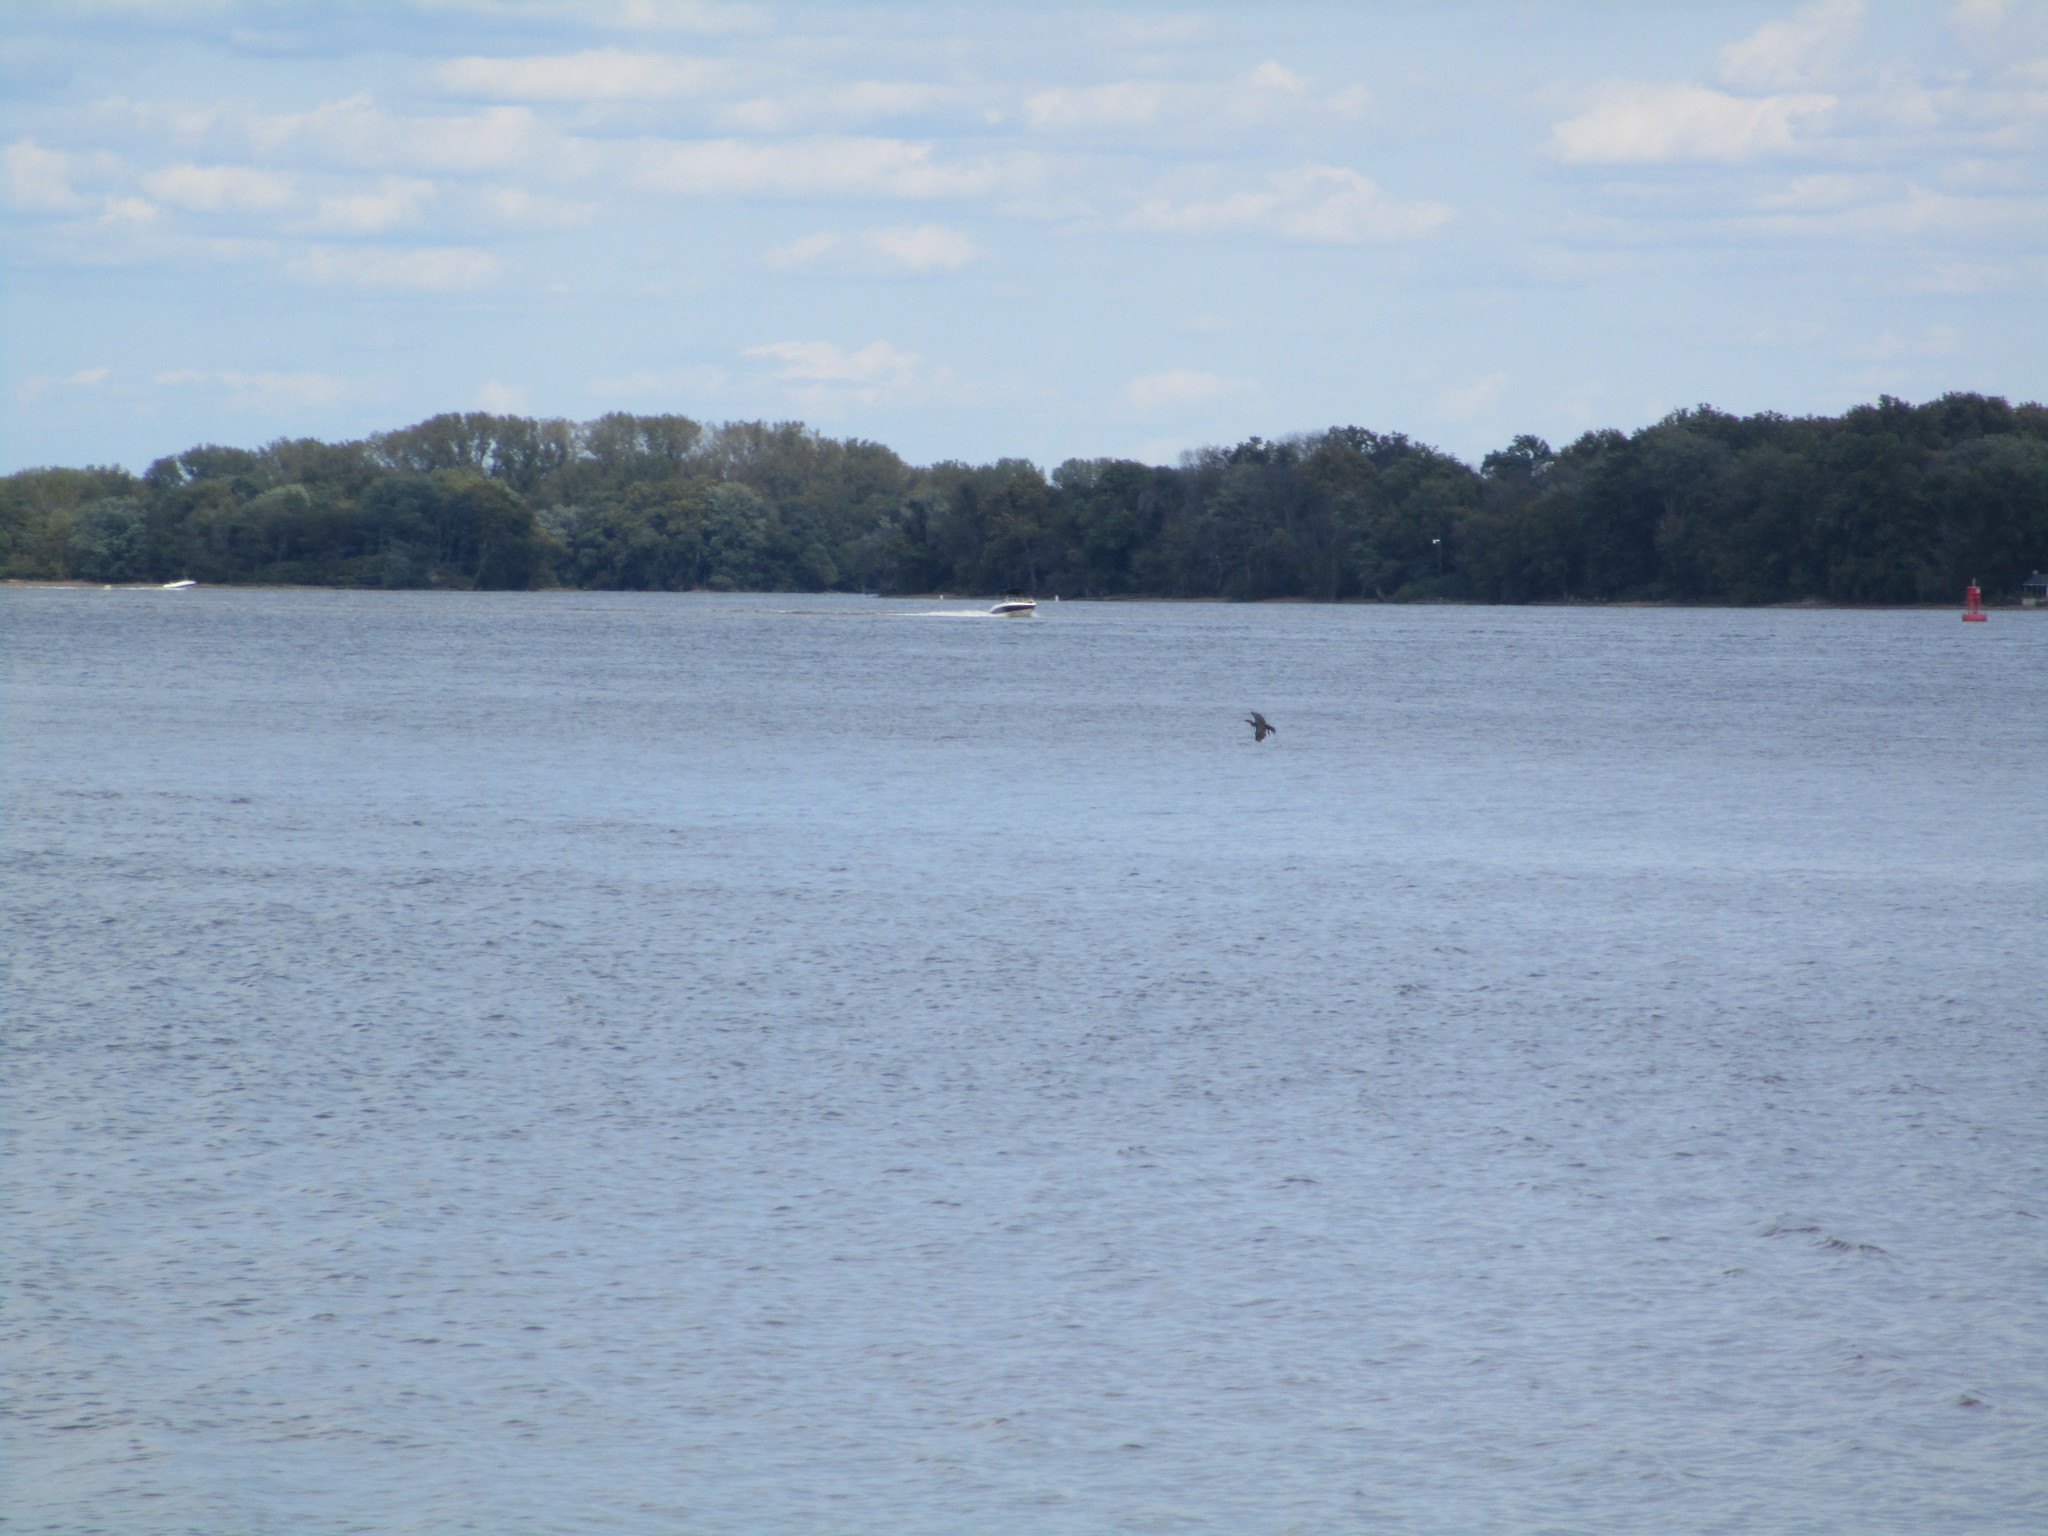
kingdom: Animalia
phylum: Chordata
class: Aves
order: Suliformes
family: Phalacrocoracidae
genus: Phalacrocorax
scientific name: Phalacrocorax auritus
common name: Double-crested cormorant
